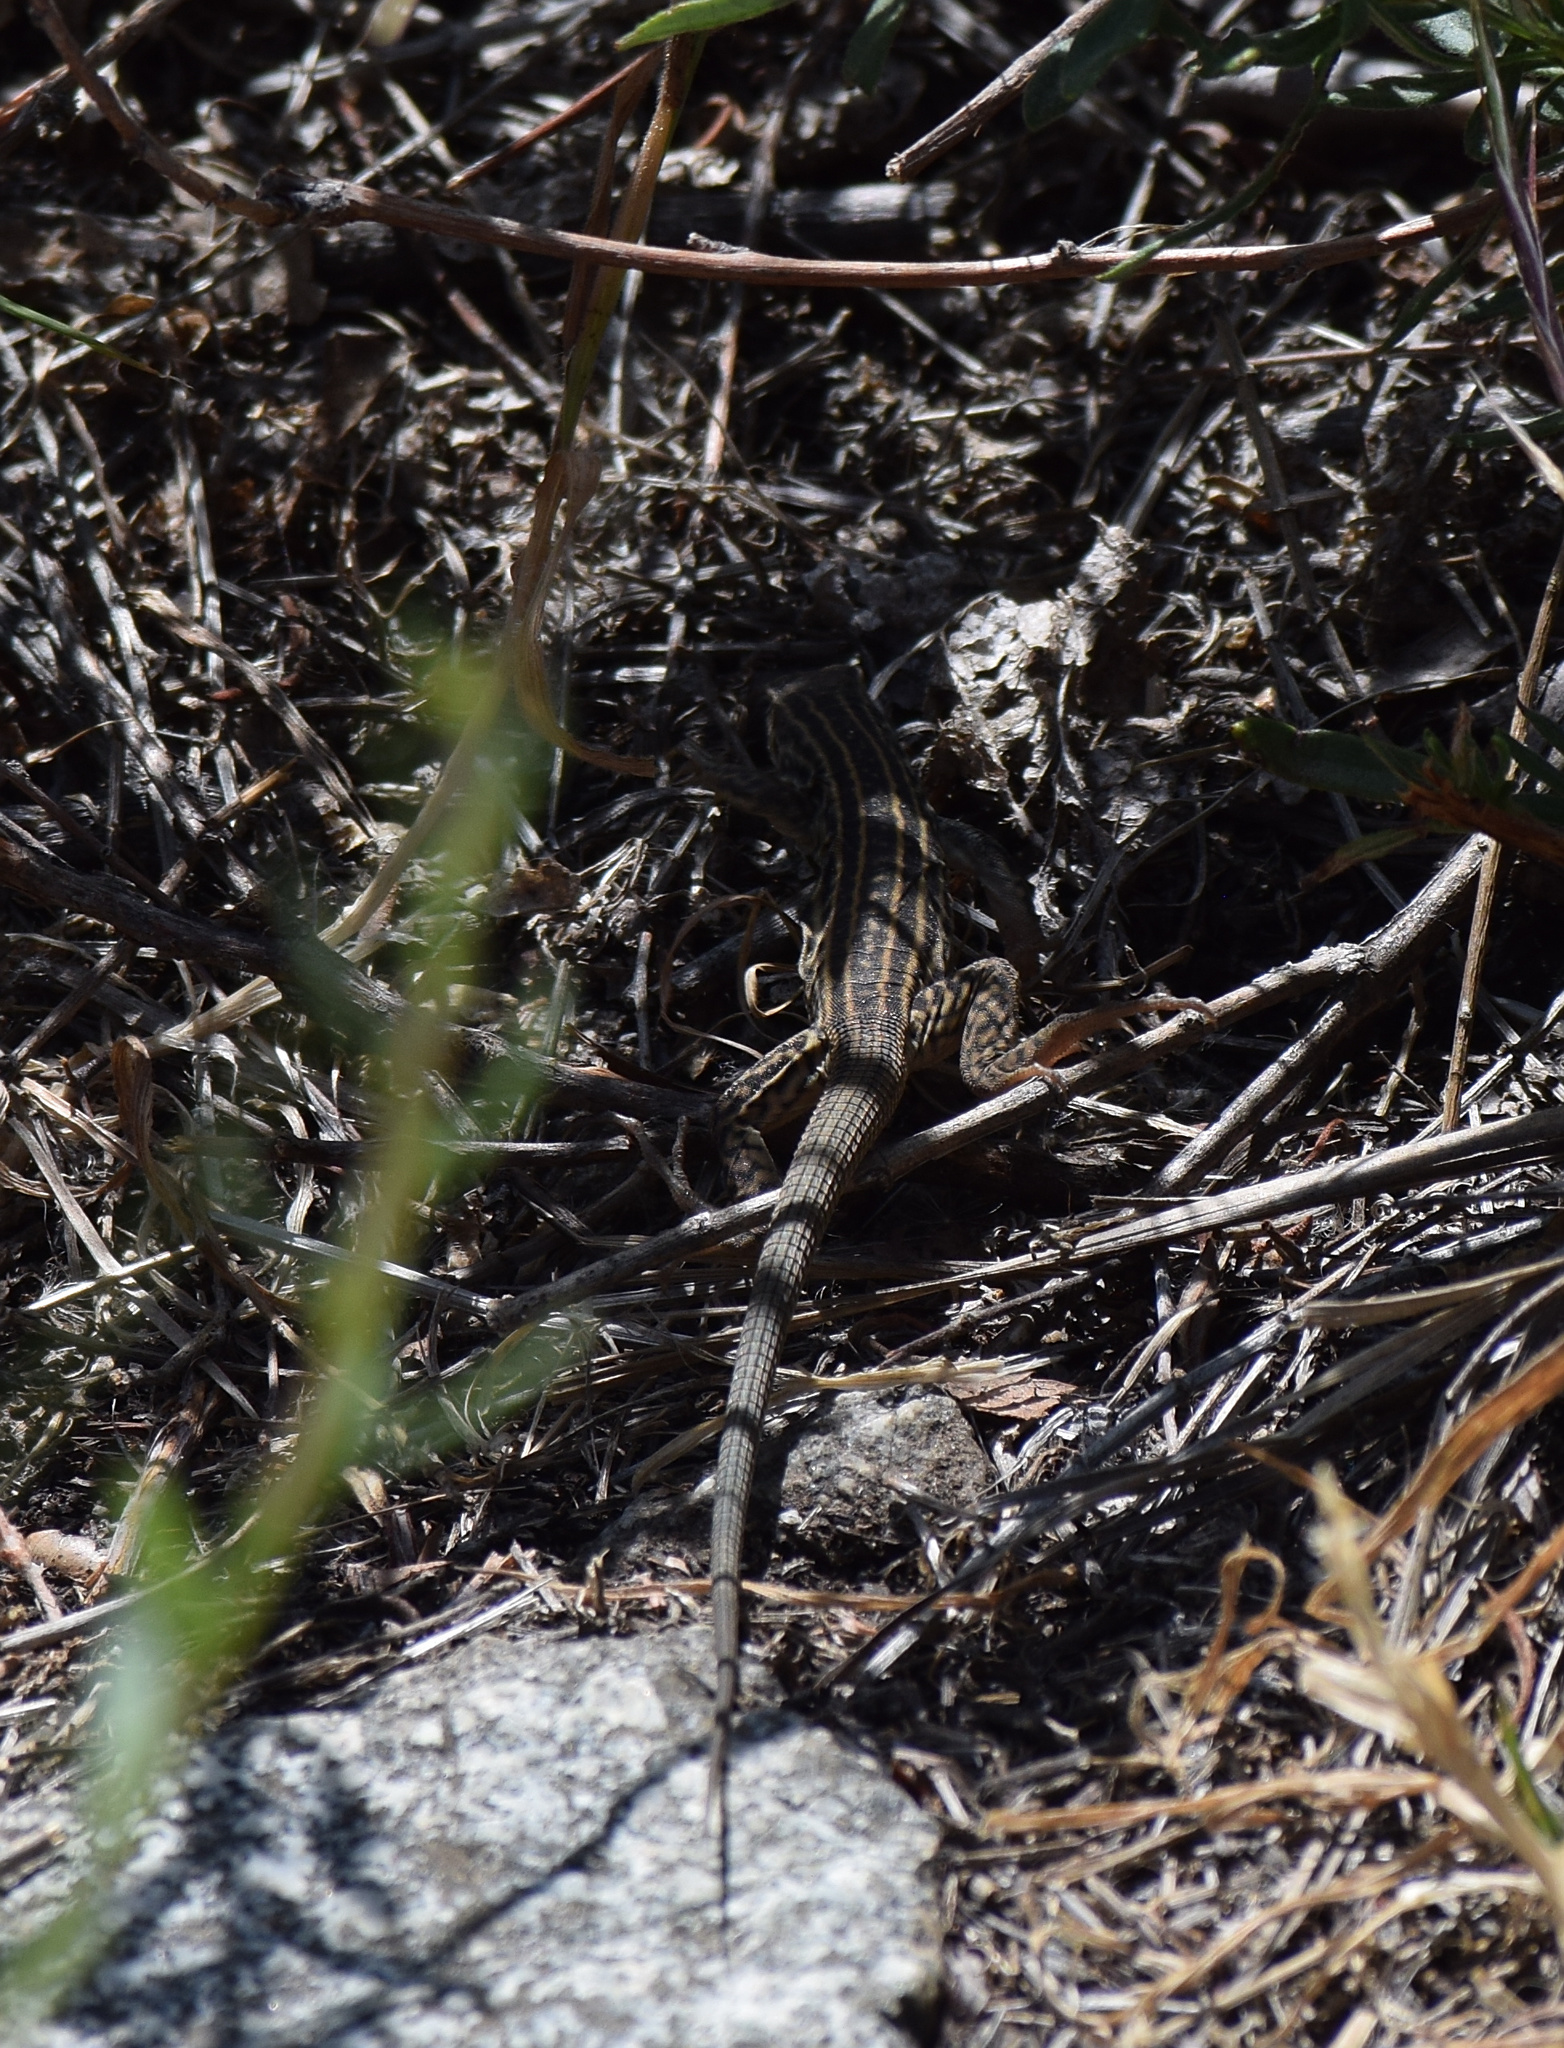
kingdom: Animalia
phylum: Chordata
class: Squamata
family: Teiidae
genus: Aspidoscelis
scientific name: Aspidoscelis tigris
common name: Tiger whiptail
